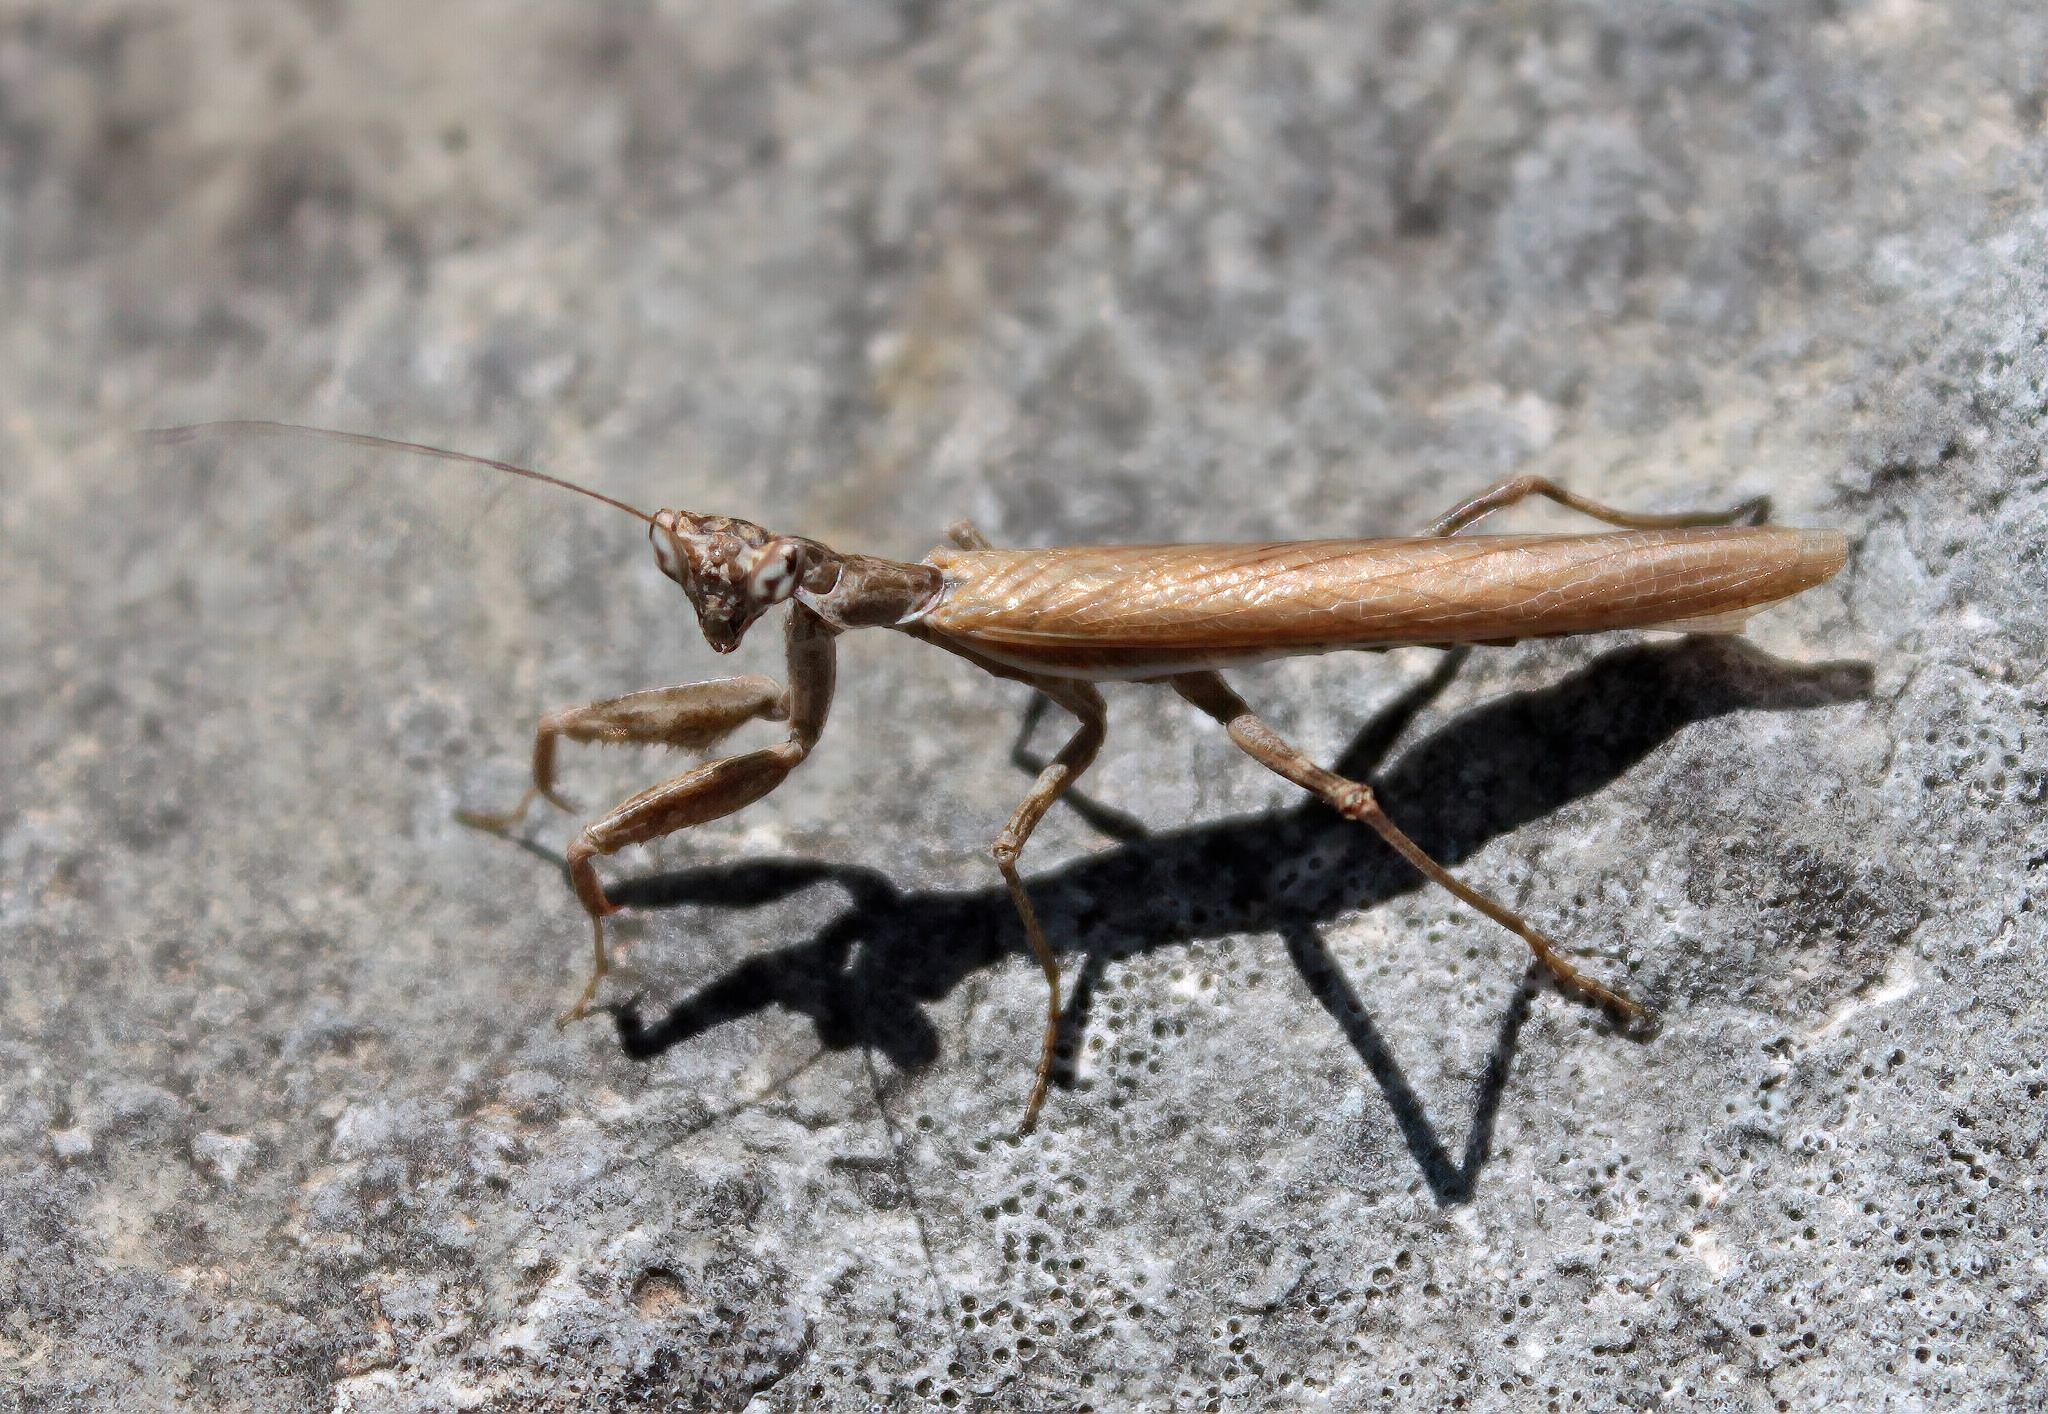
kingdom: Animalia
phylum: Arthropoda
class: Insecta
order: Mantodea
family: Amelidae
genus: Ameles
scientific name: Ameles spallanzania
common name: European dwarf mantis
